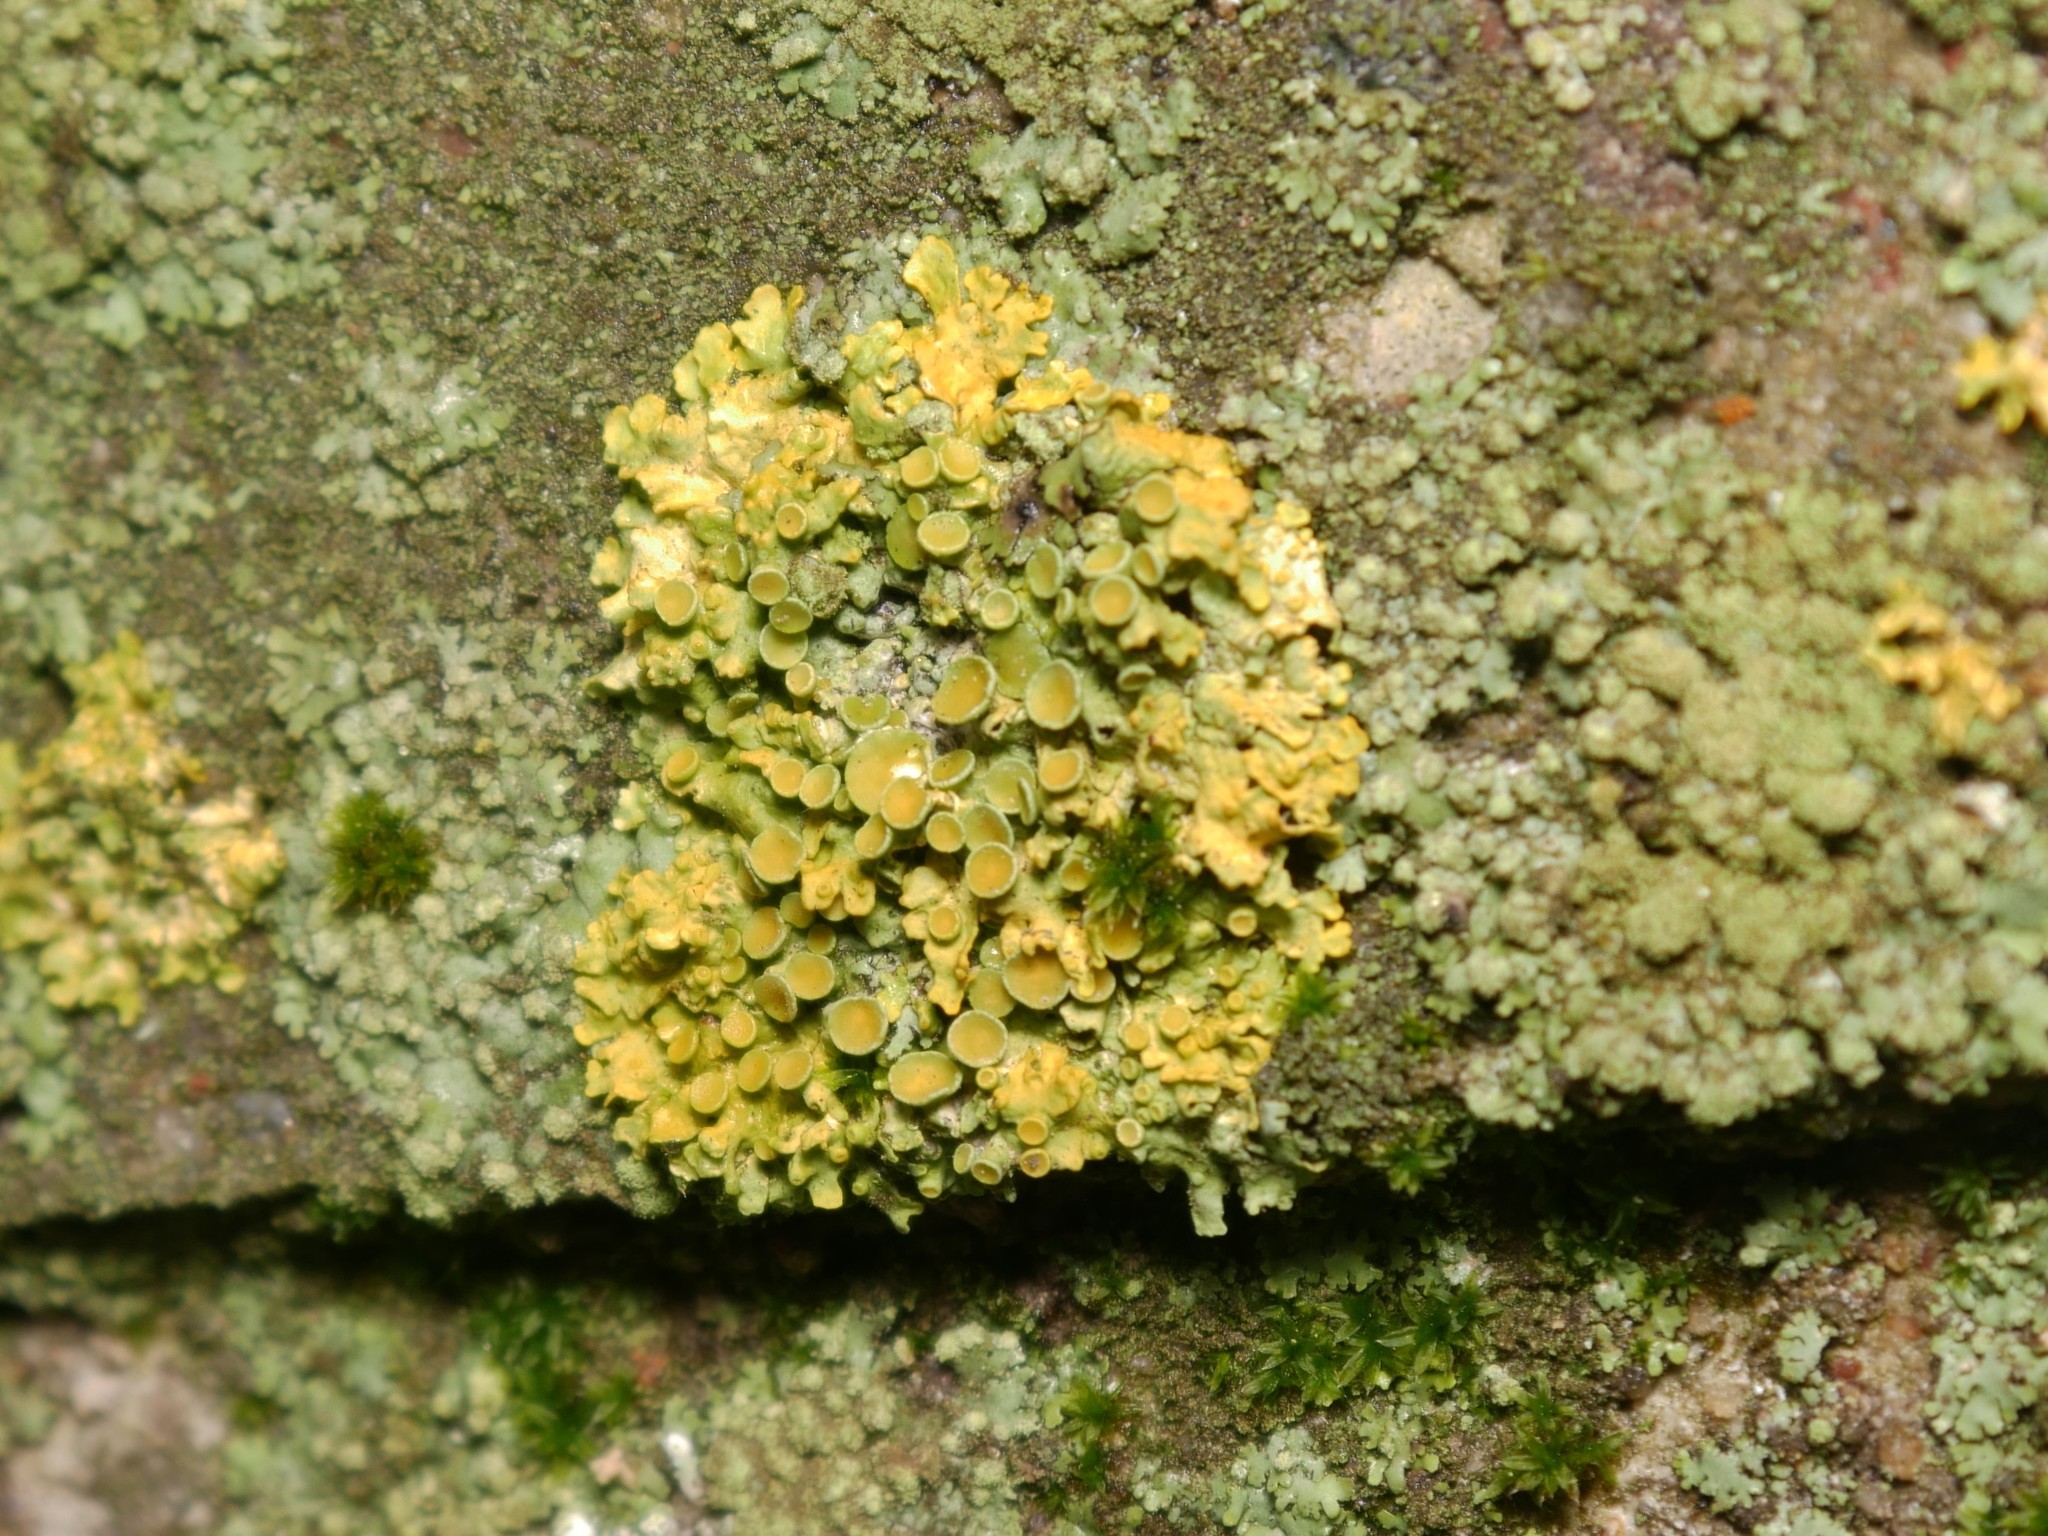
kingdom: Fungi
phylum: Ascomycota
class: Lecanoromycetes
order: Teloschistales
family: Teloschistaceae
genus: Xanthoria
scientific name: Xanthoria parietina
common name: Common orange lichen
